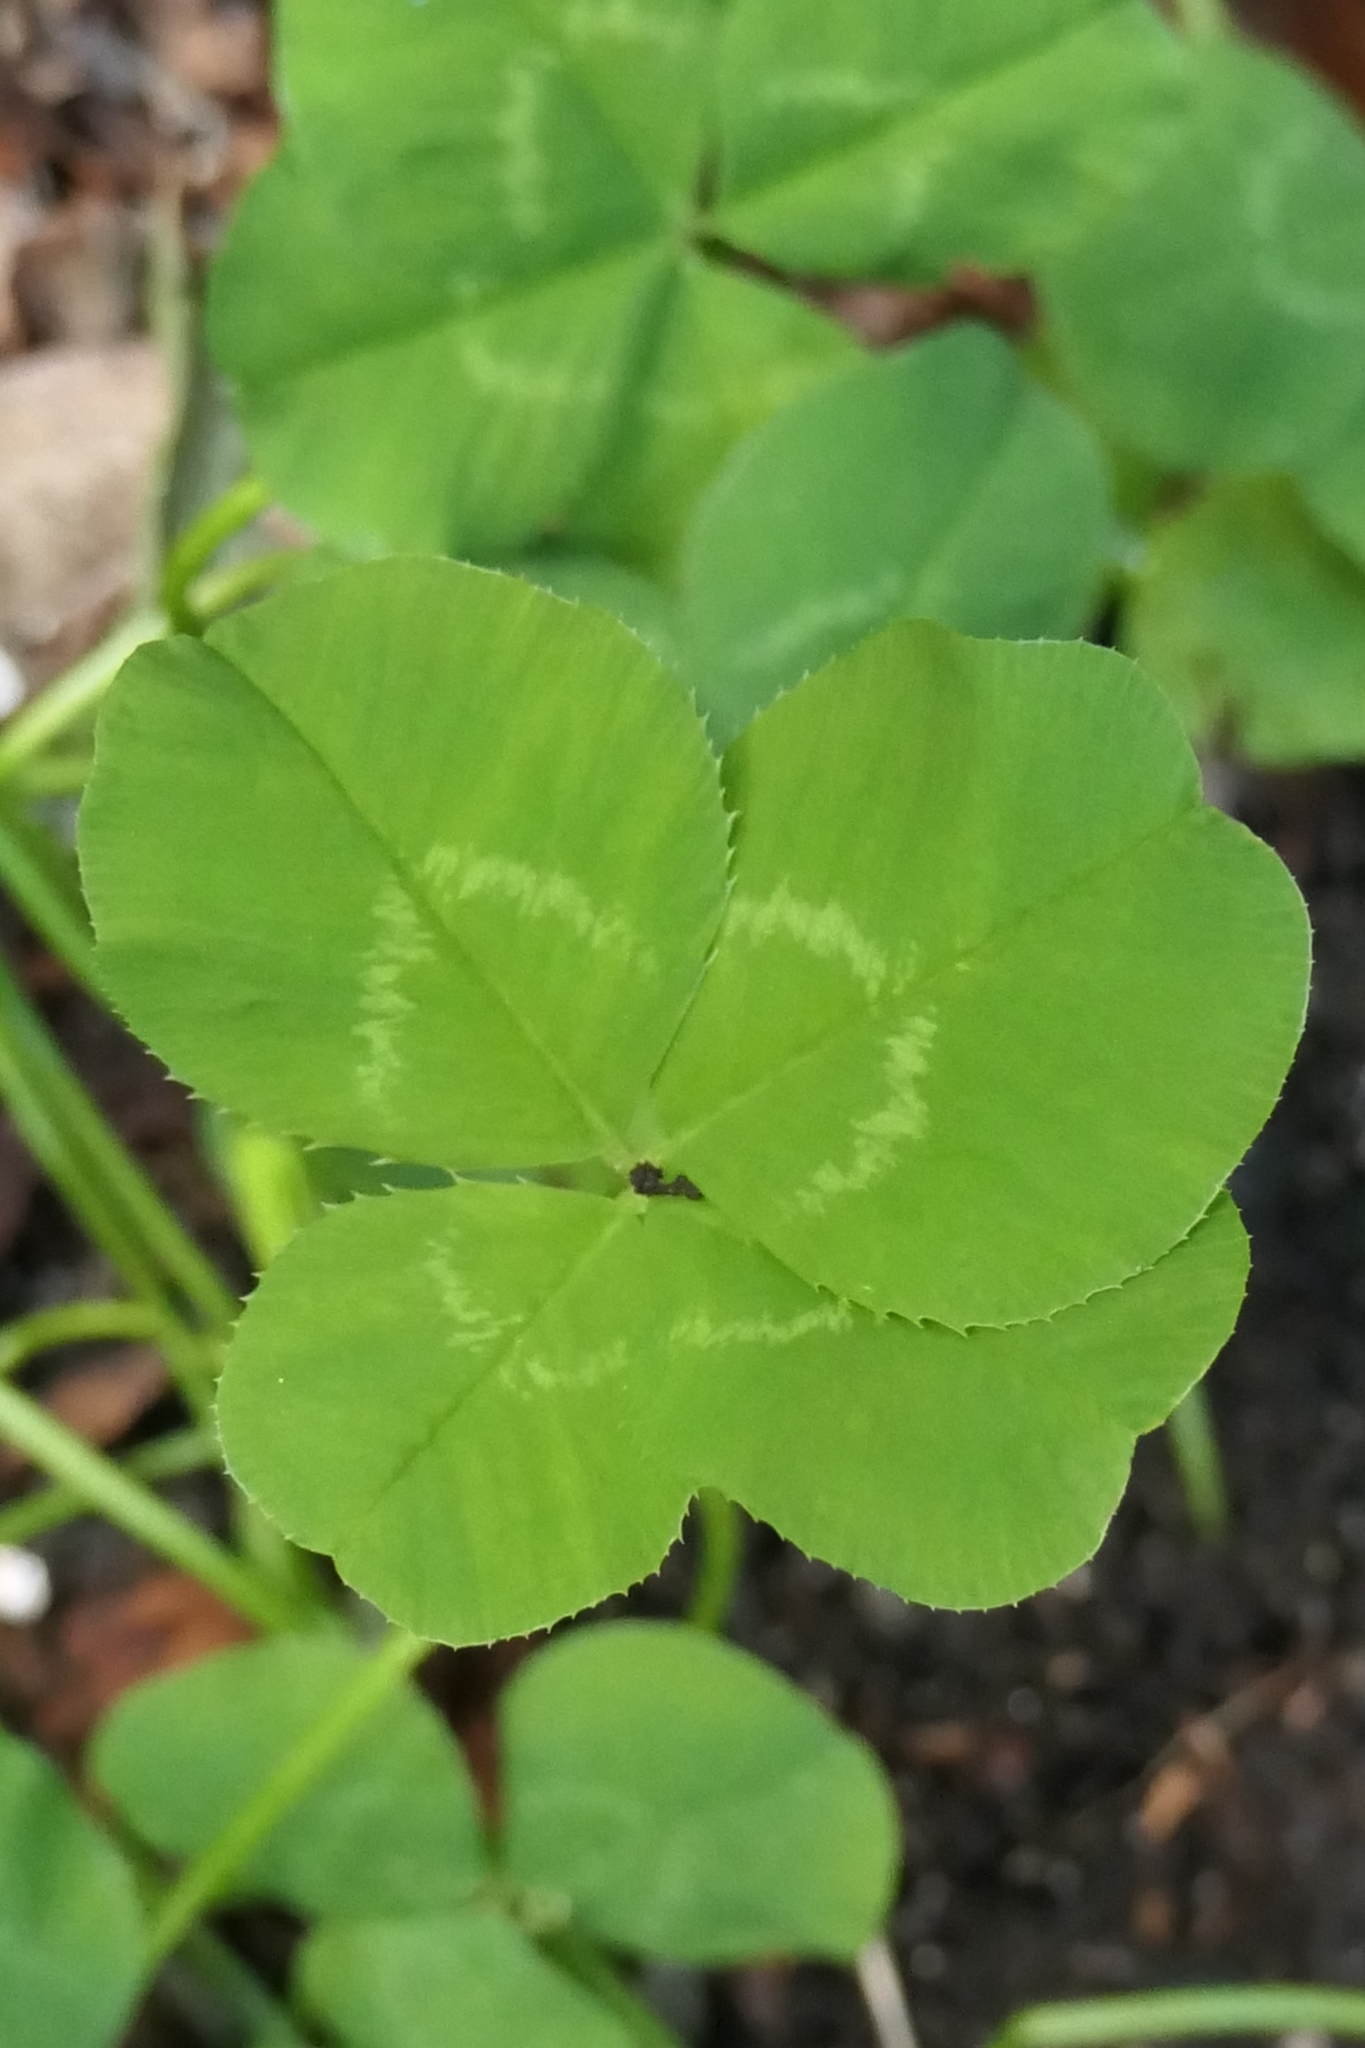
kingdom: Plantae
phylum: Tracheophyta
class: Magnoliopsida
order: Fabales
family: Fabaceae
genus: Trifolium
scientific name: Trifolium repens
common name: White clover
